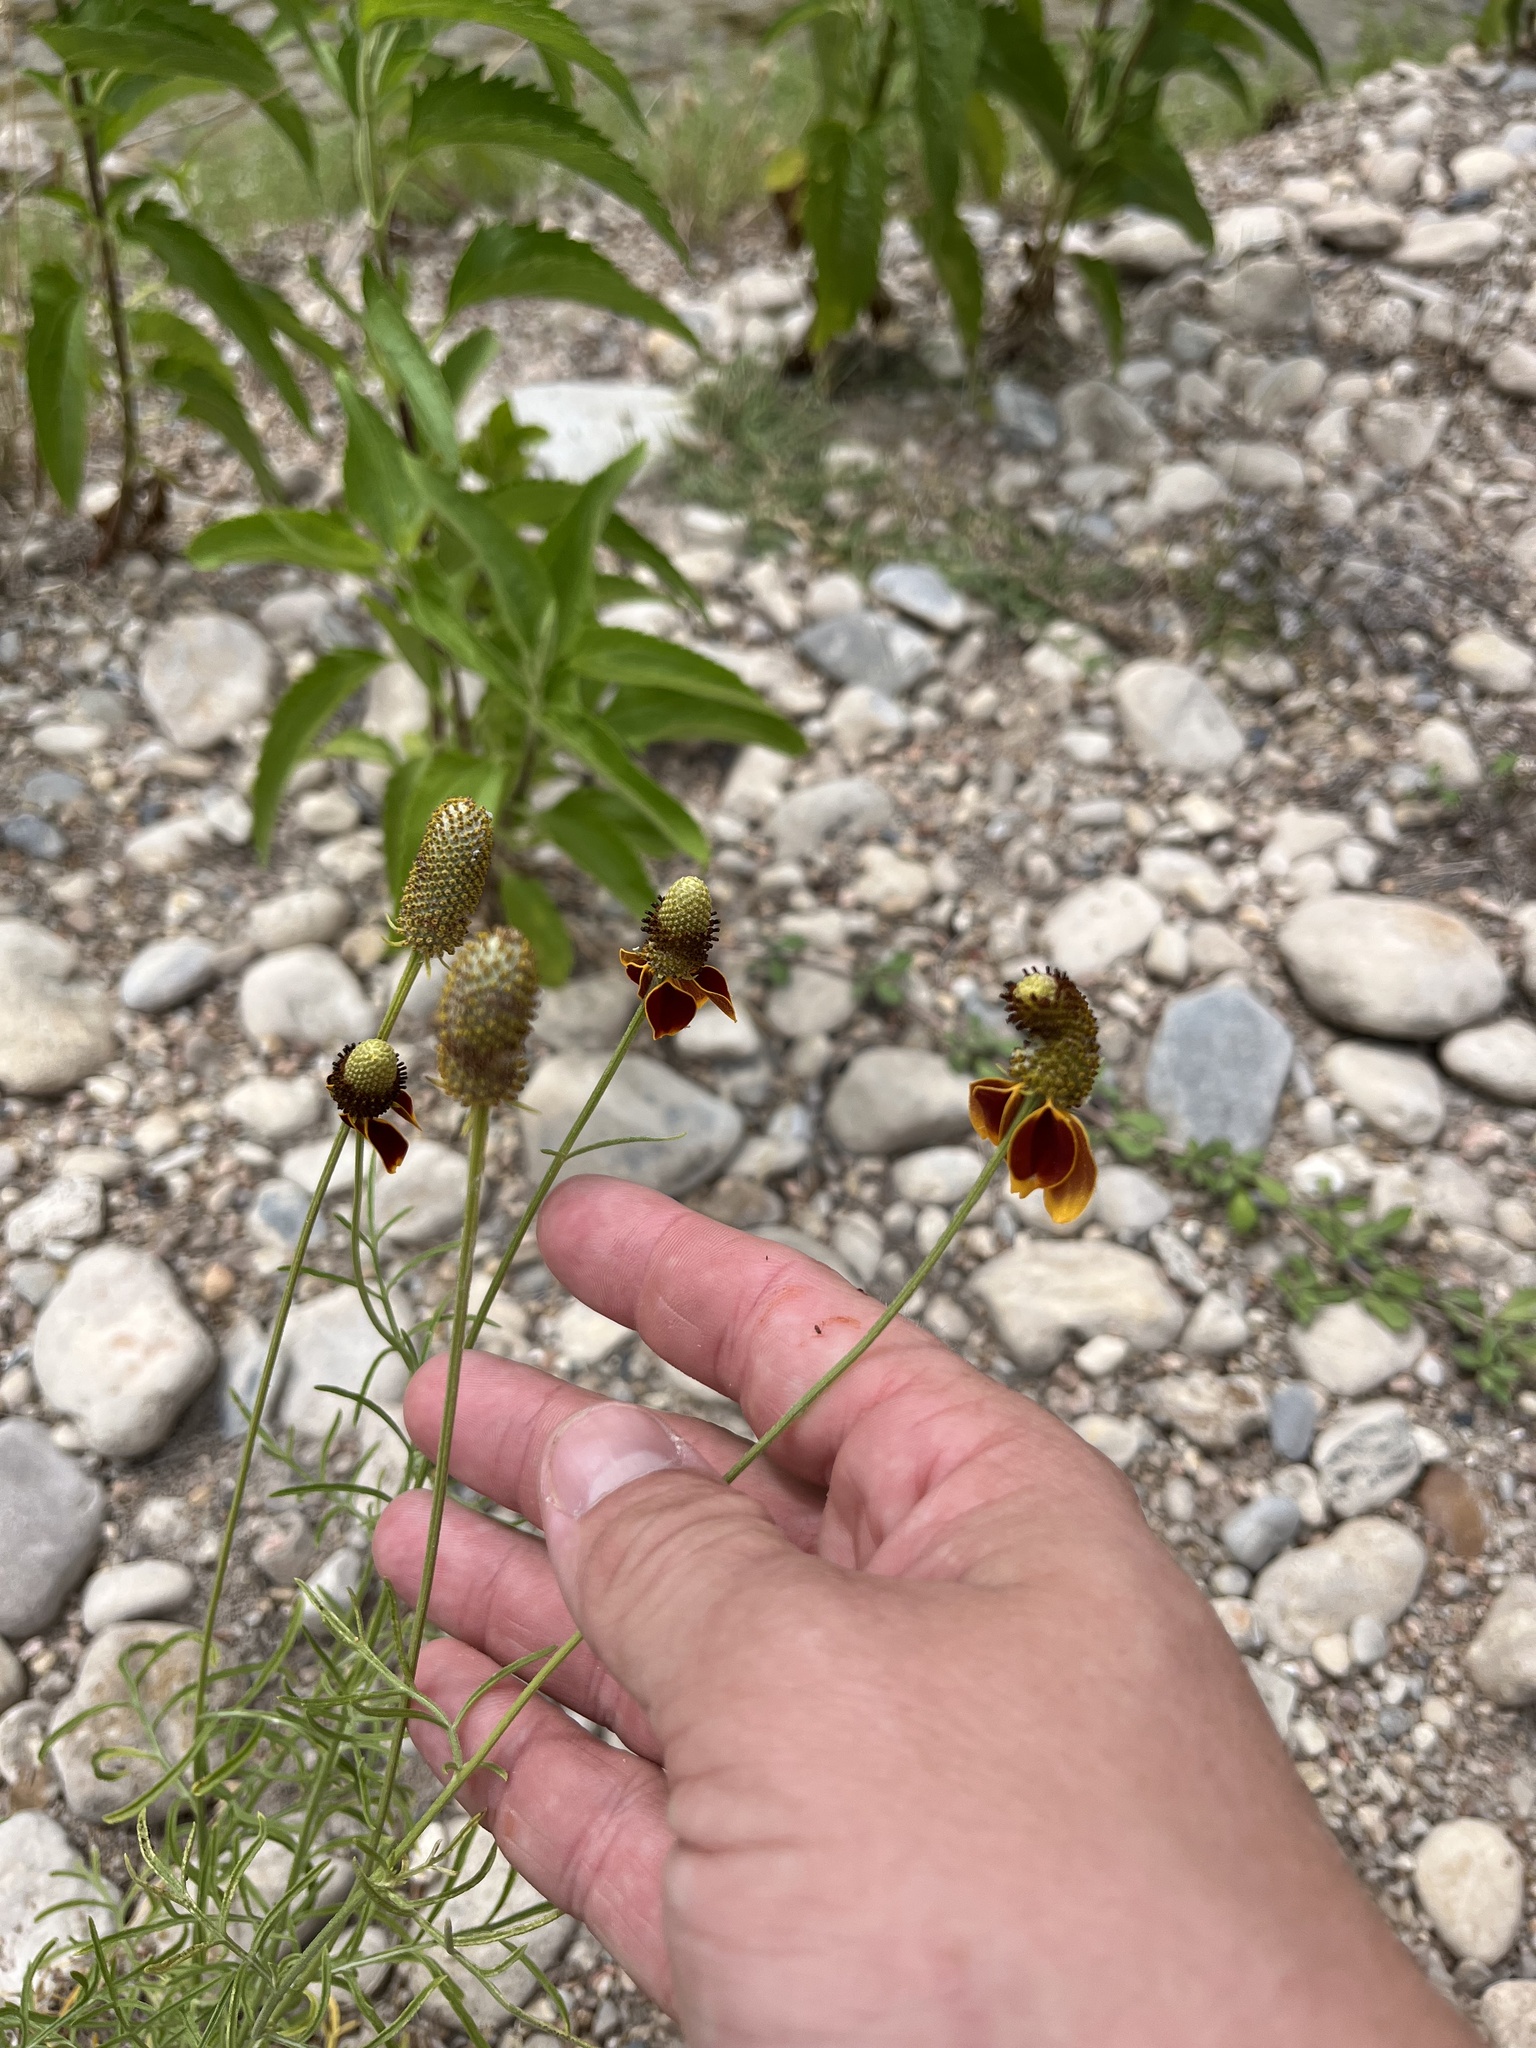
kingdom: Plantae
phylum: Tracheophyta
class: Magnoliopsida
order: Asterales
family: Asteraceae
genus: Ratibida
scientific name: Ratibida columnifera
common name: Prairie coneflower
